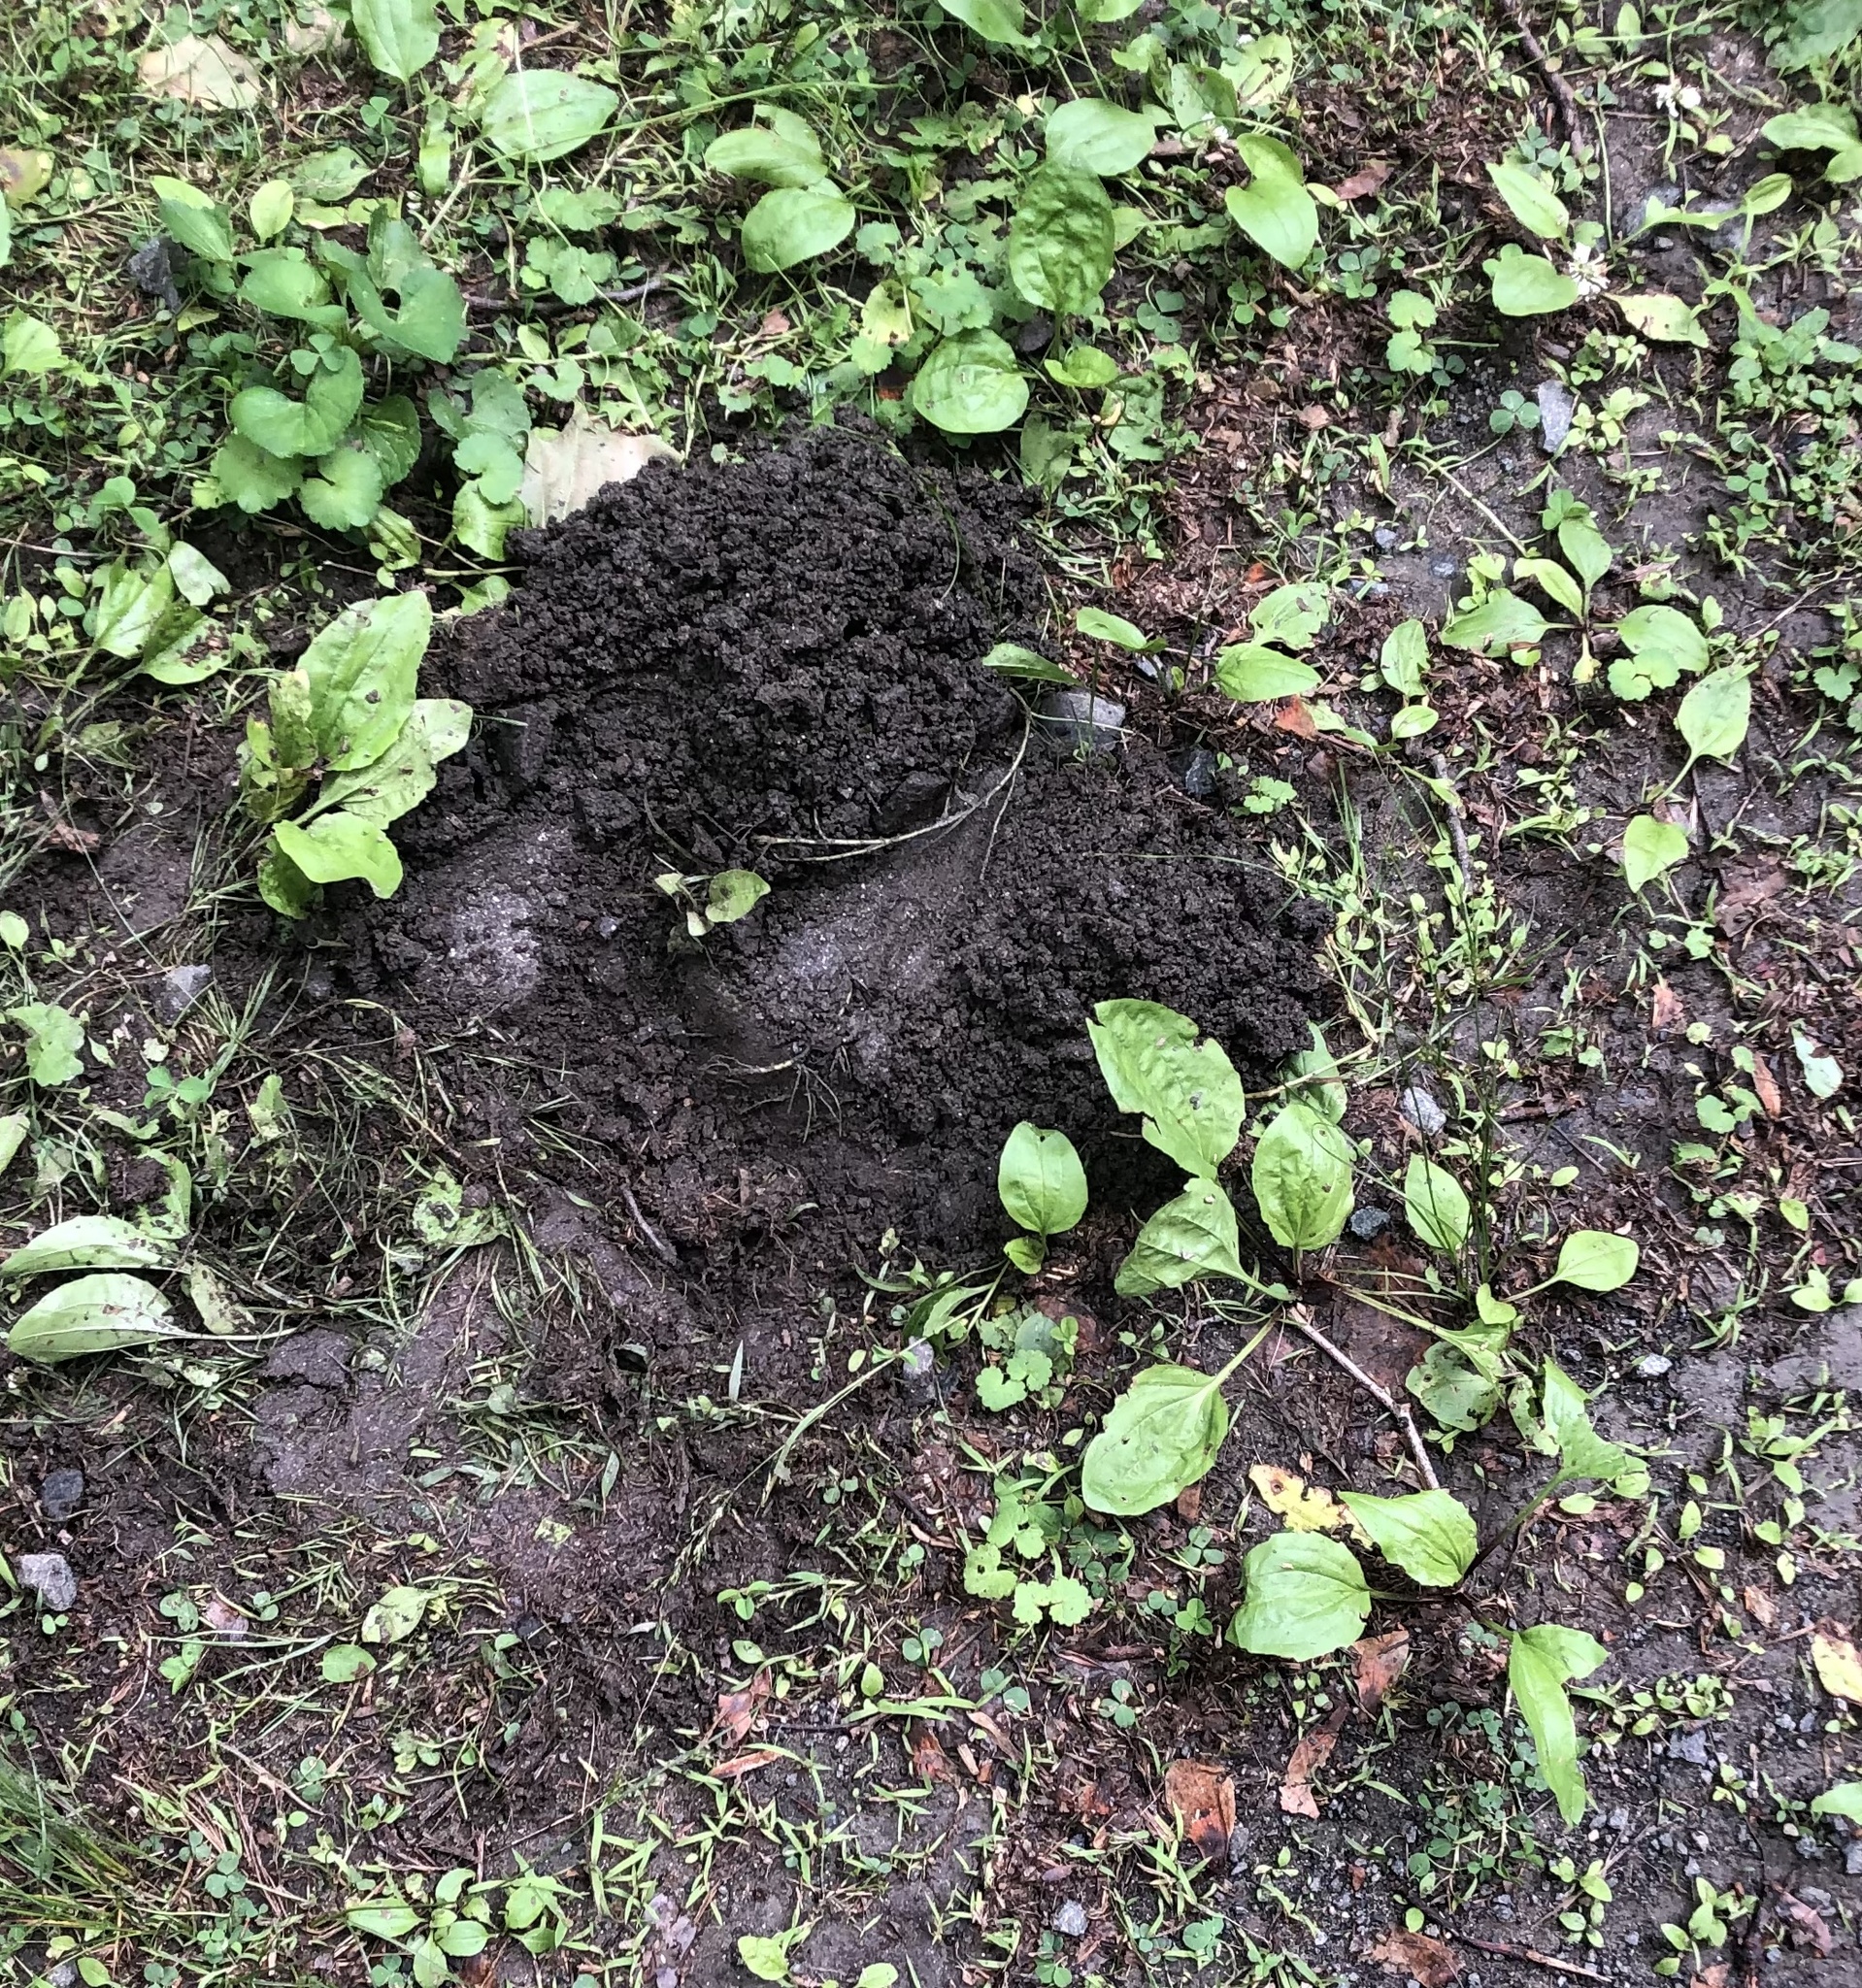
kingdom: Animalia
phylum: Chordata
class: Testudines
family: Chelydridae
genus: Chelydra
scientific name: Chelydra serpentina
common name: Common snapping turtle
